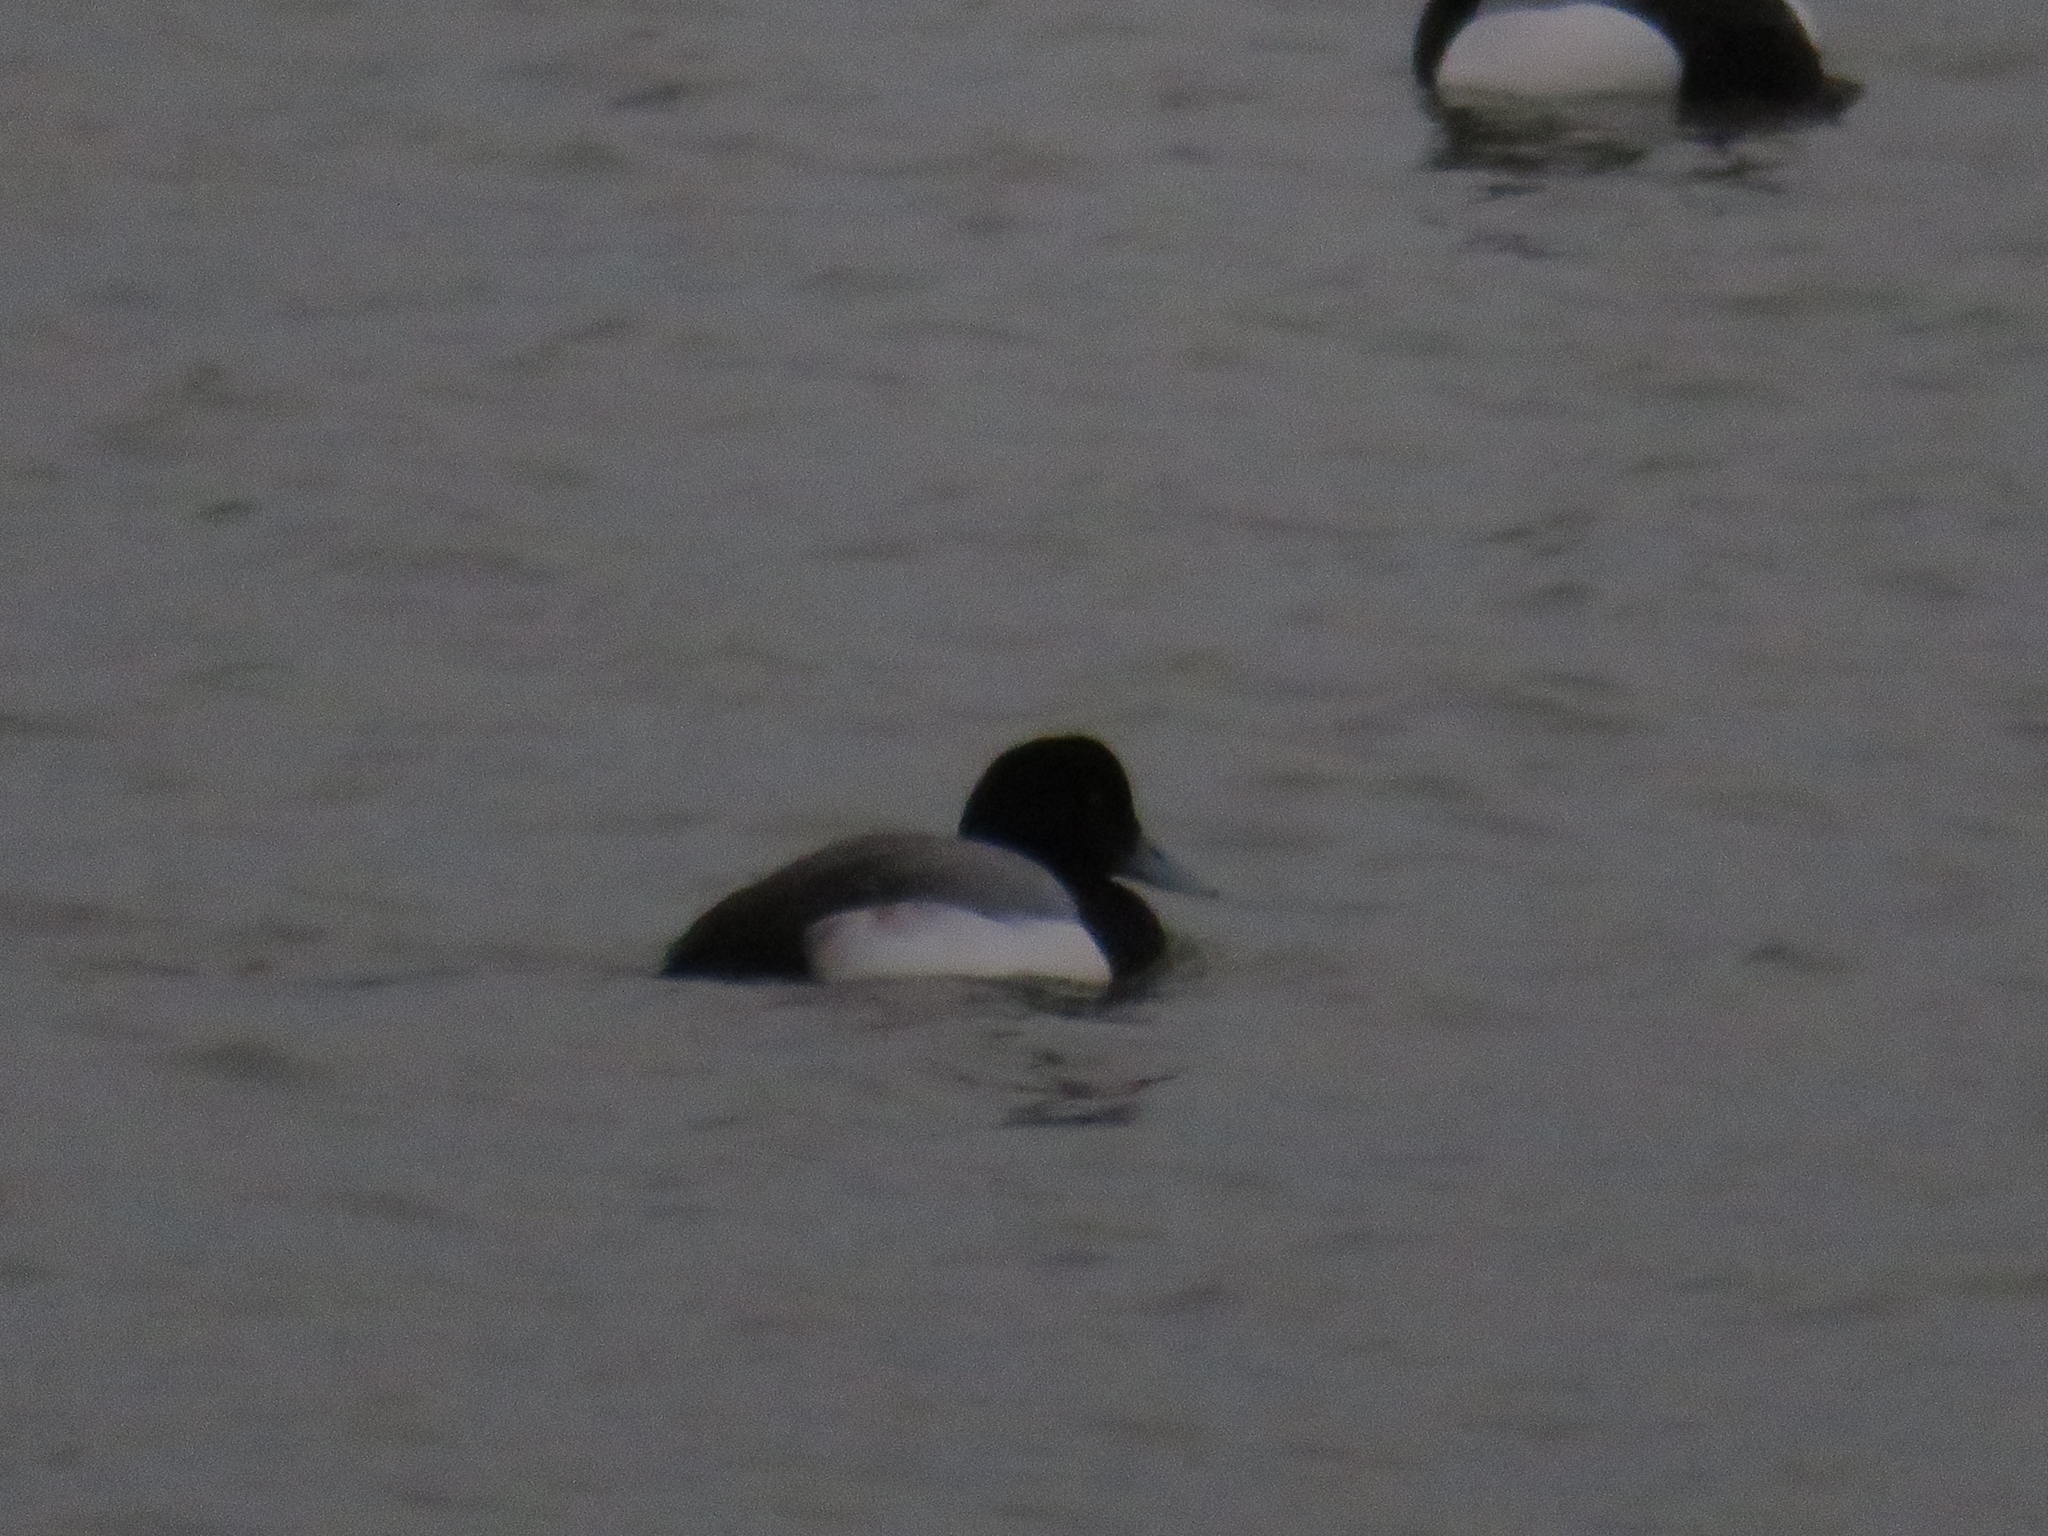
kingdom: Animalia
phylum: Chordata
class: Aves
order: Anseriformes
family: Anatidae
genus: Aythya
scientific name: Aythya marila
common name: Greater scaup
